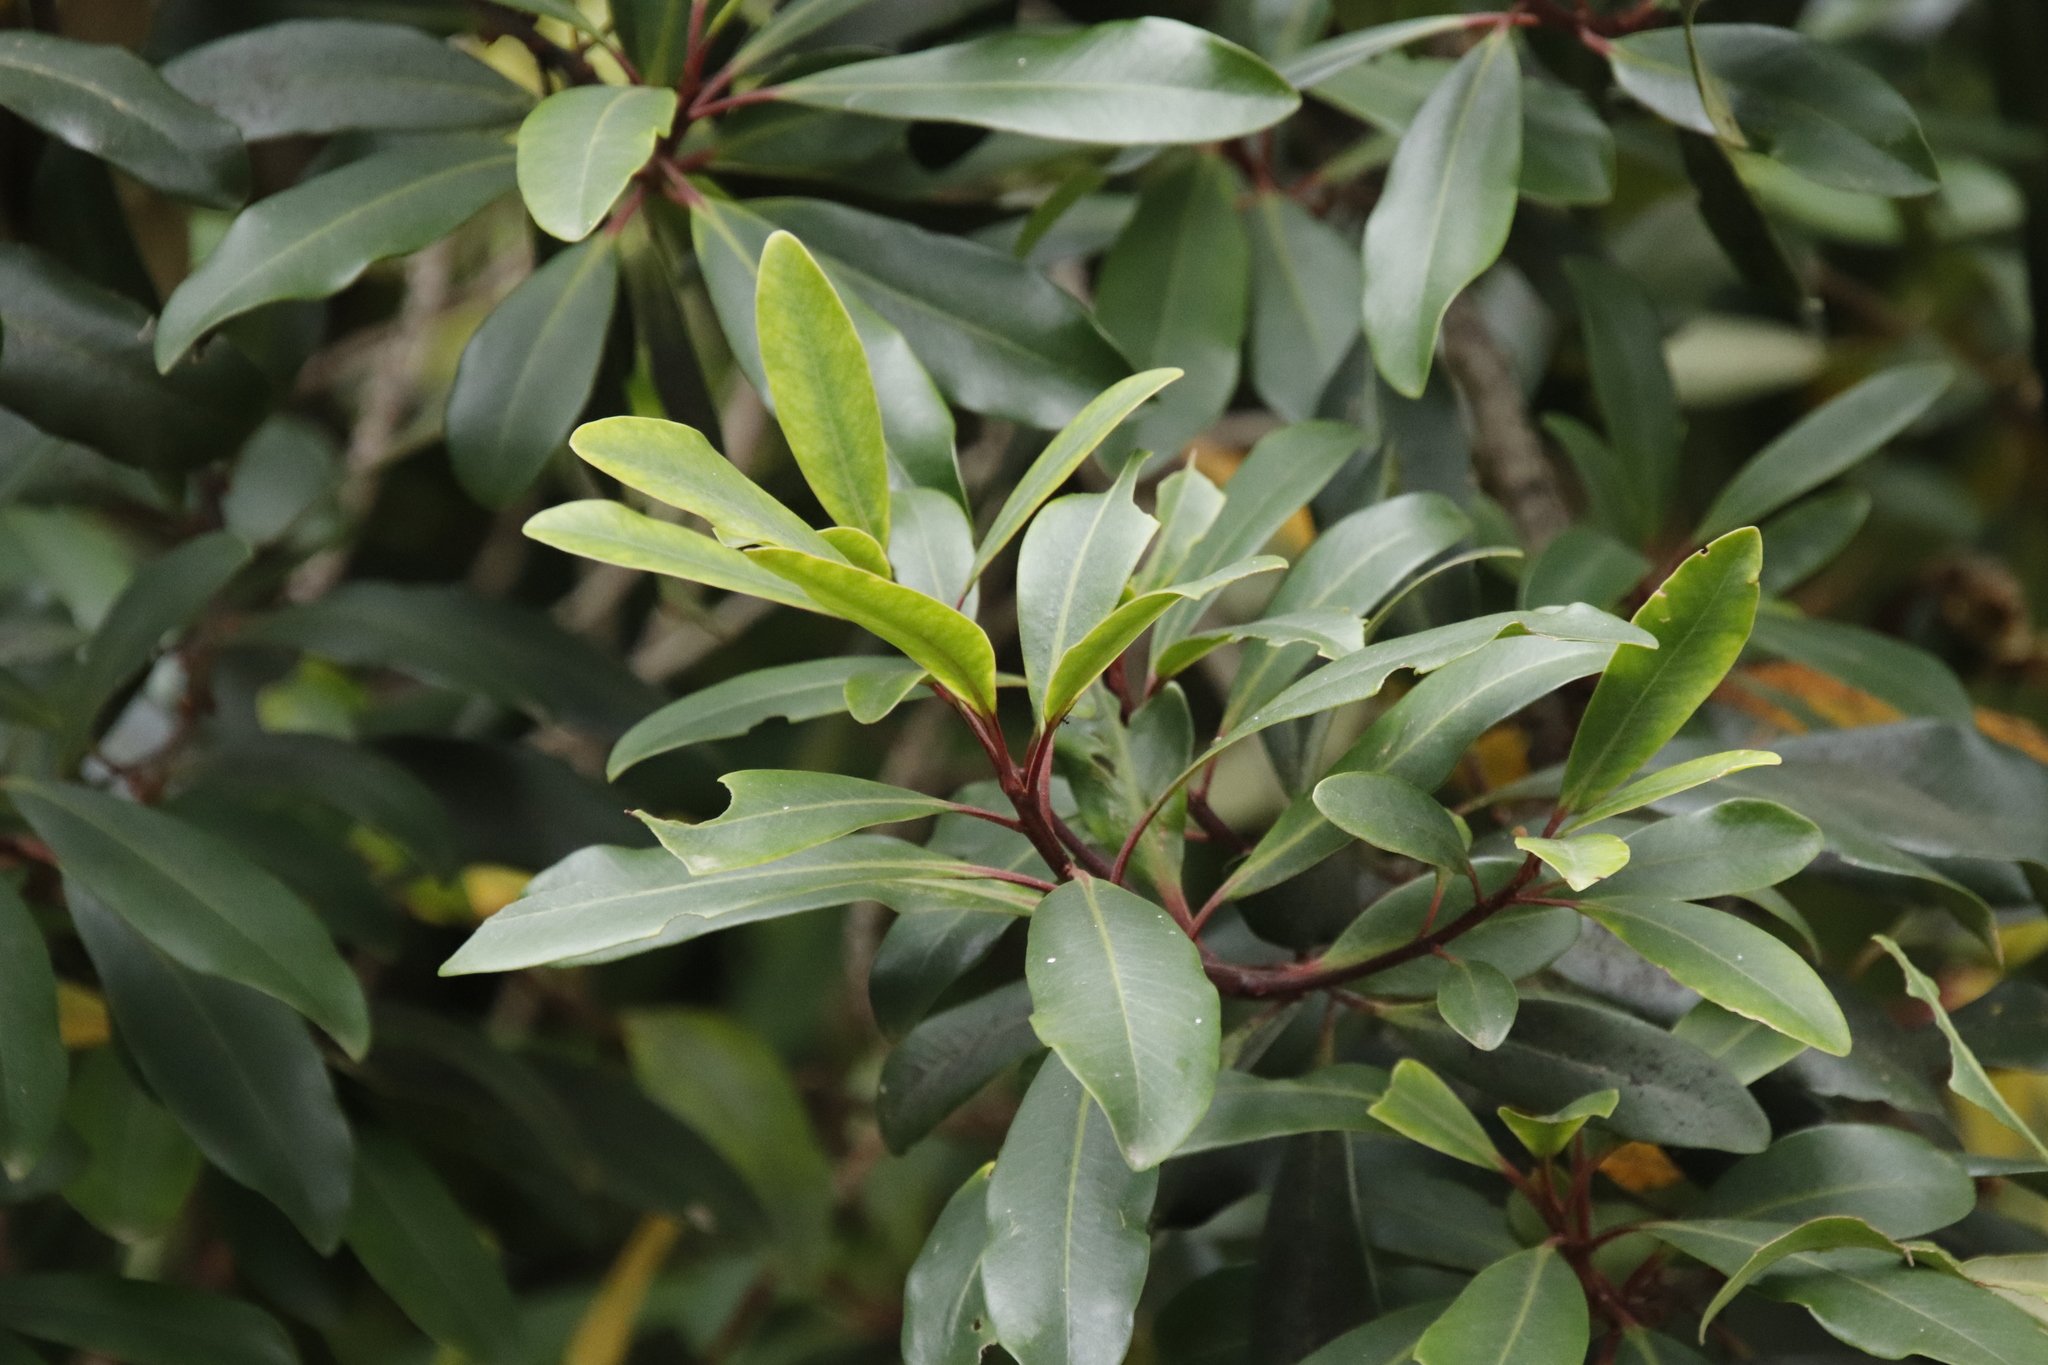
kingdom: Plantae
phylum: Tracheophyta
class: Magnoliopsida
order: Ericales
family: Primulaceae
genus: Myrsine
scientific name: Myrsine melanophloeos
